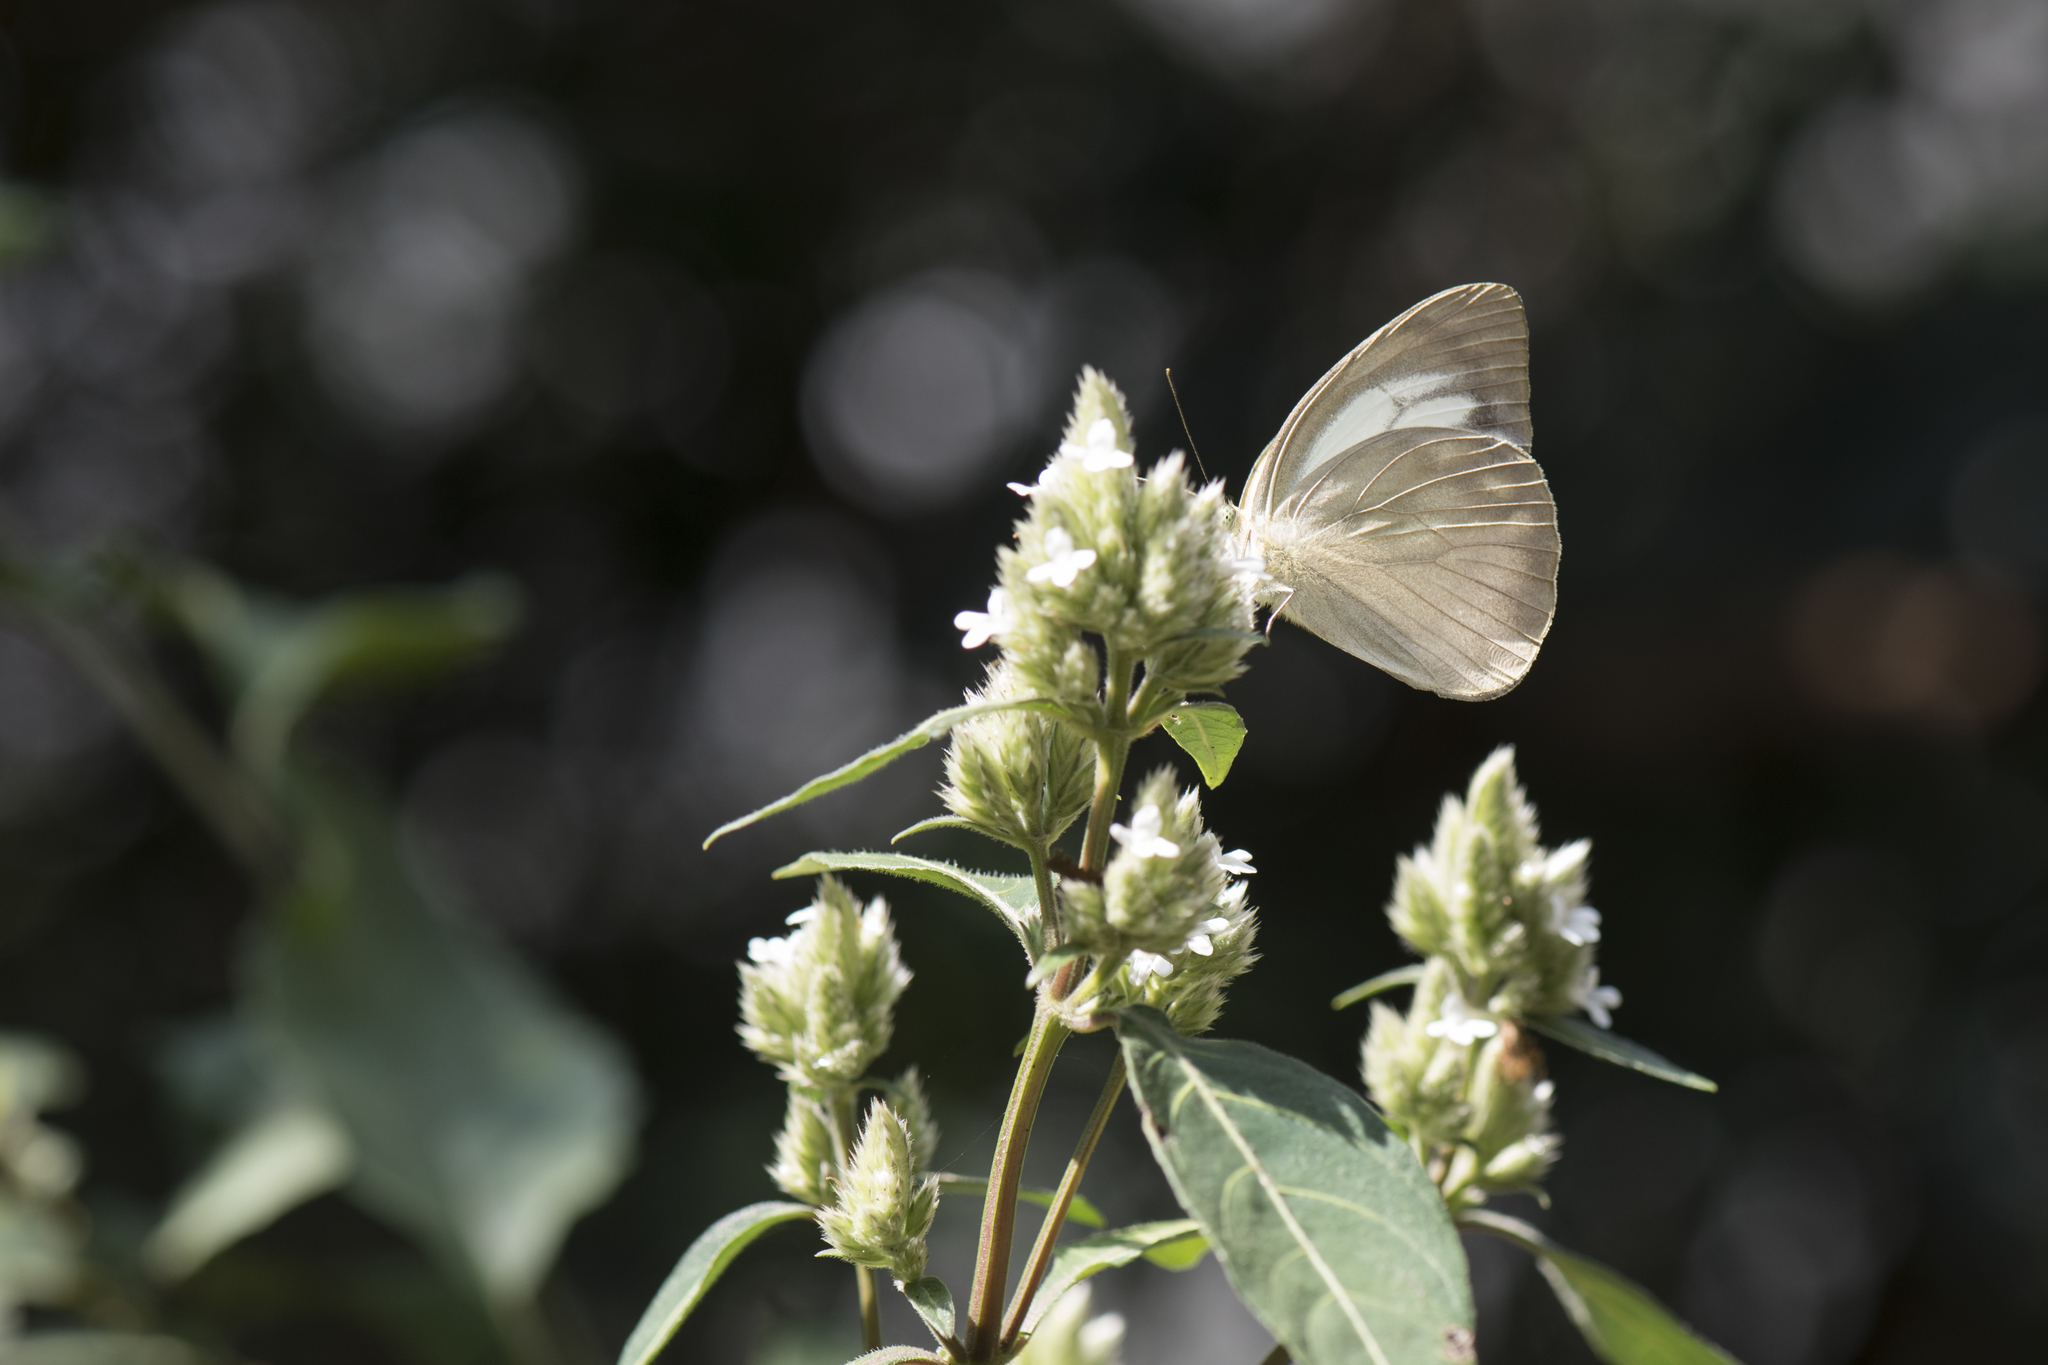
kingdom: Animalia
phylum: Arthropoda
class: Insecta
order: Lepidoptera
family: Pieridae
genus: Cepora
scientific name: Cepora nadina
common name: Lesser gull
